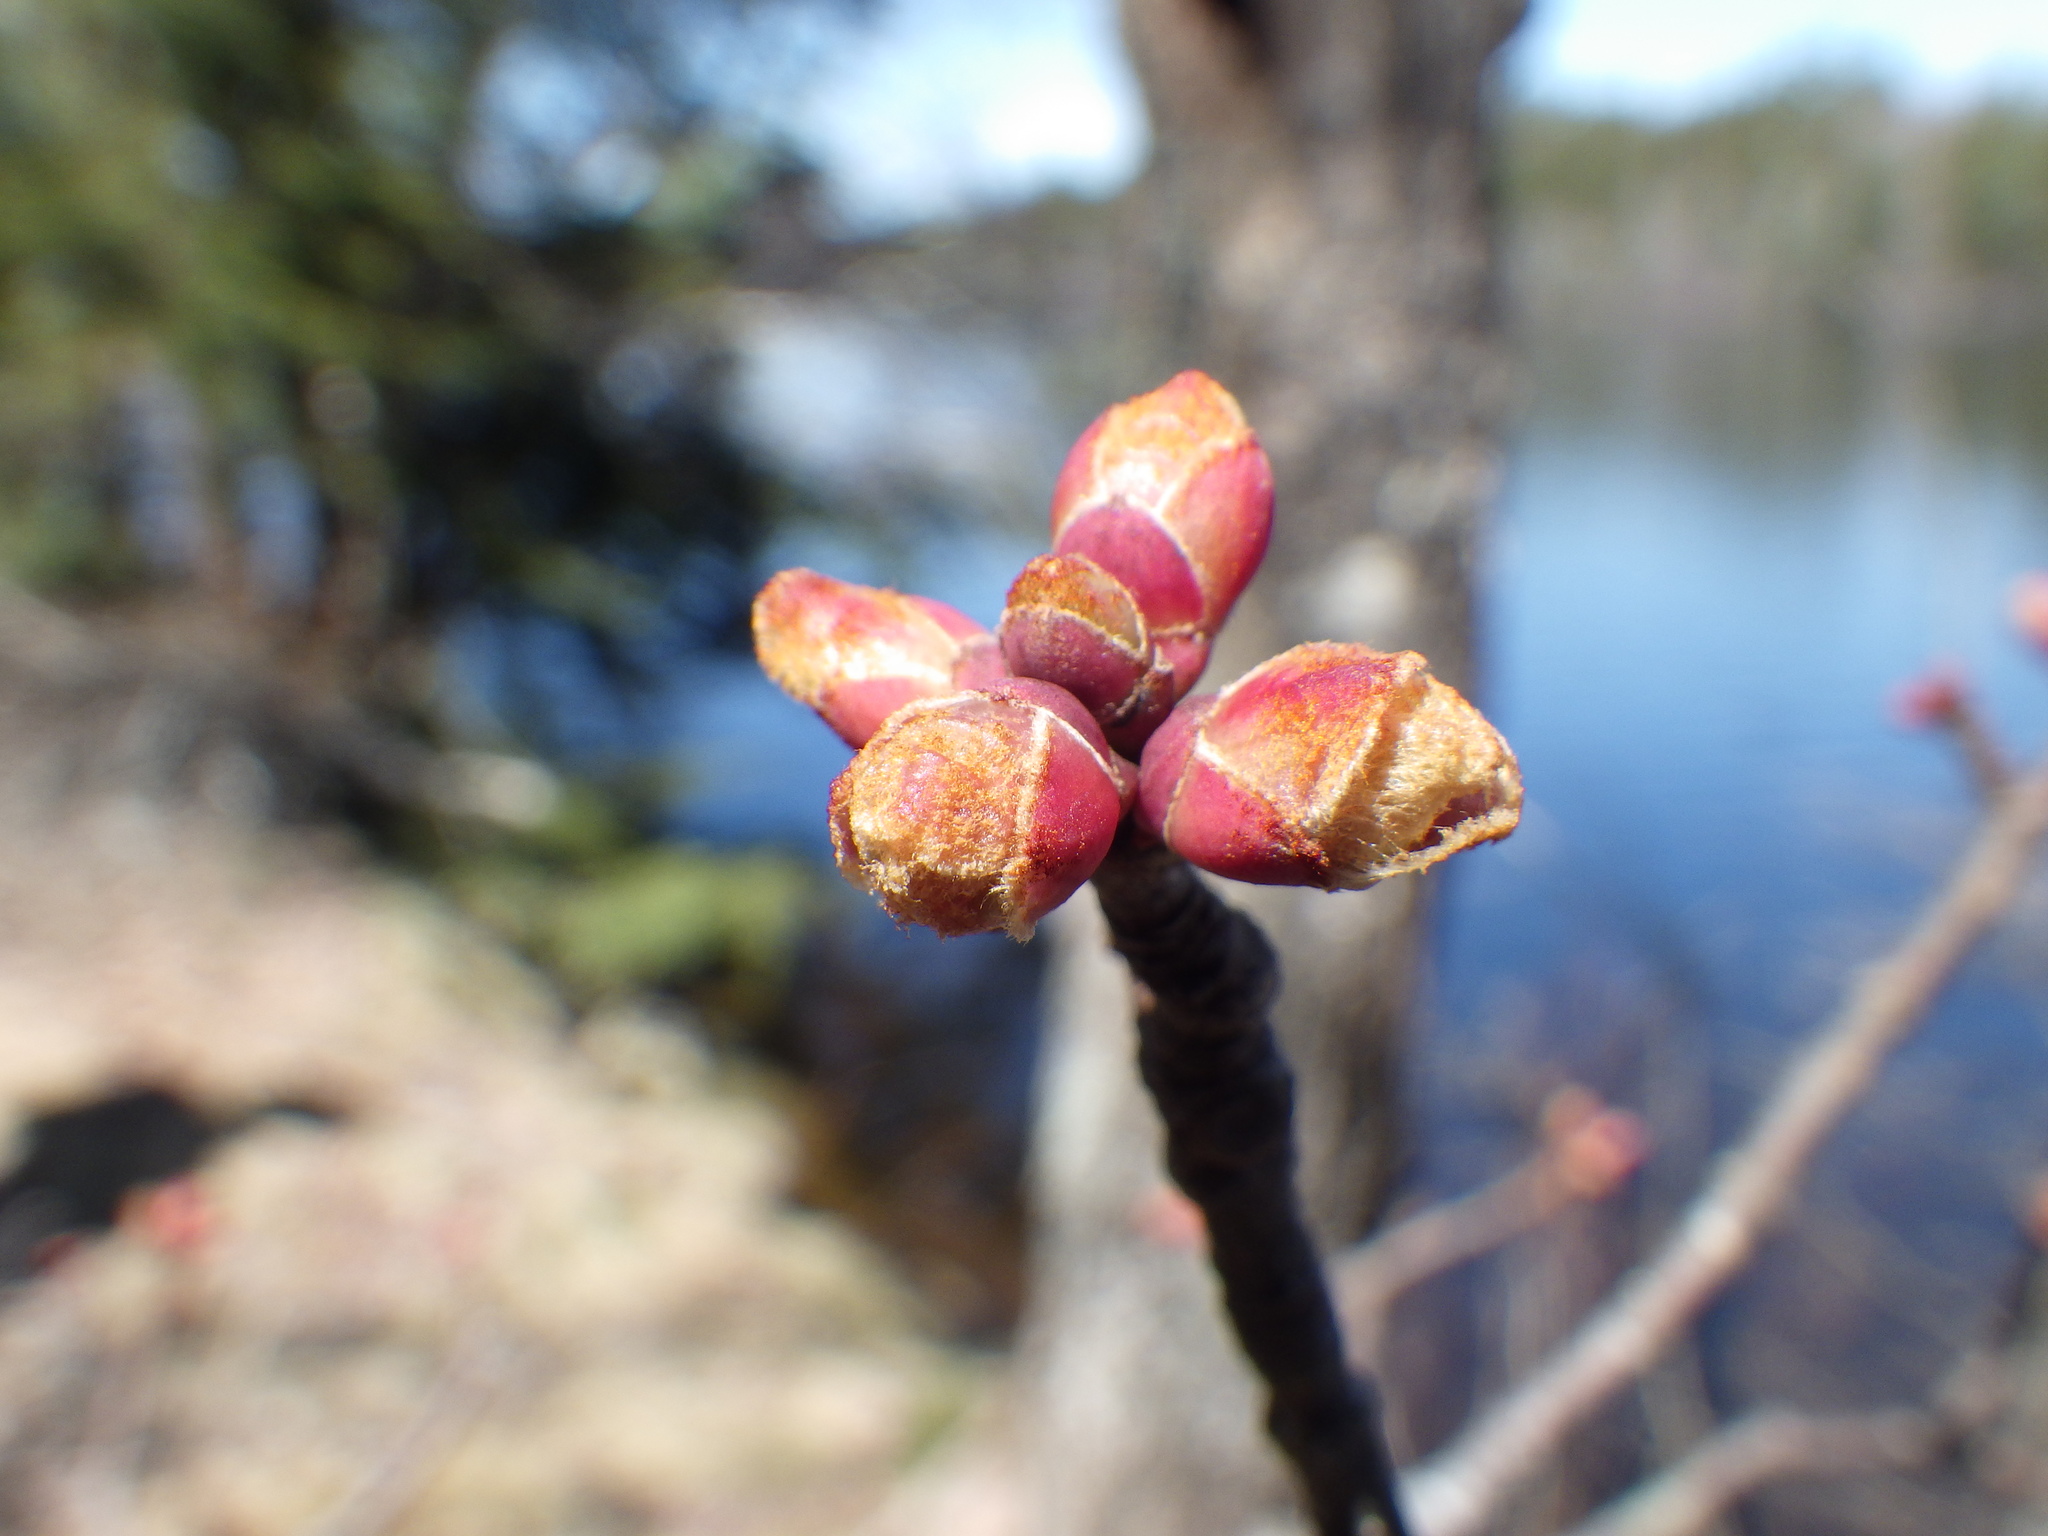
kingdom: Plantae
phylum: Tracheophyta
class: Magnoliopsida
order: Sapindales
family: Sapindaceae
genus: Acer
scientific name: Acer rubrum
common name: Red maple
